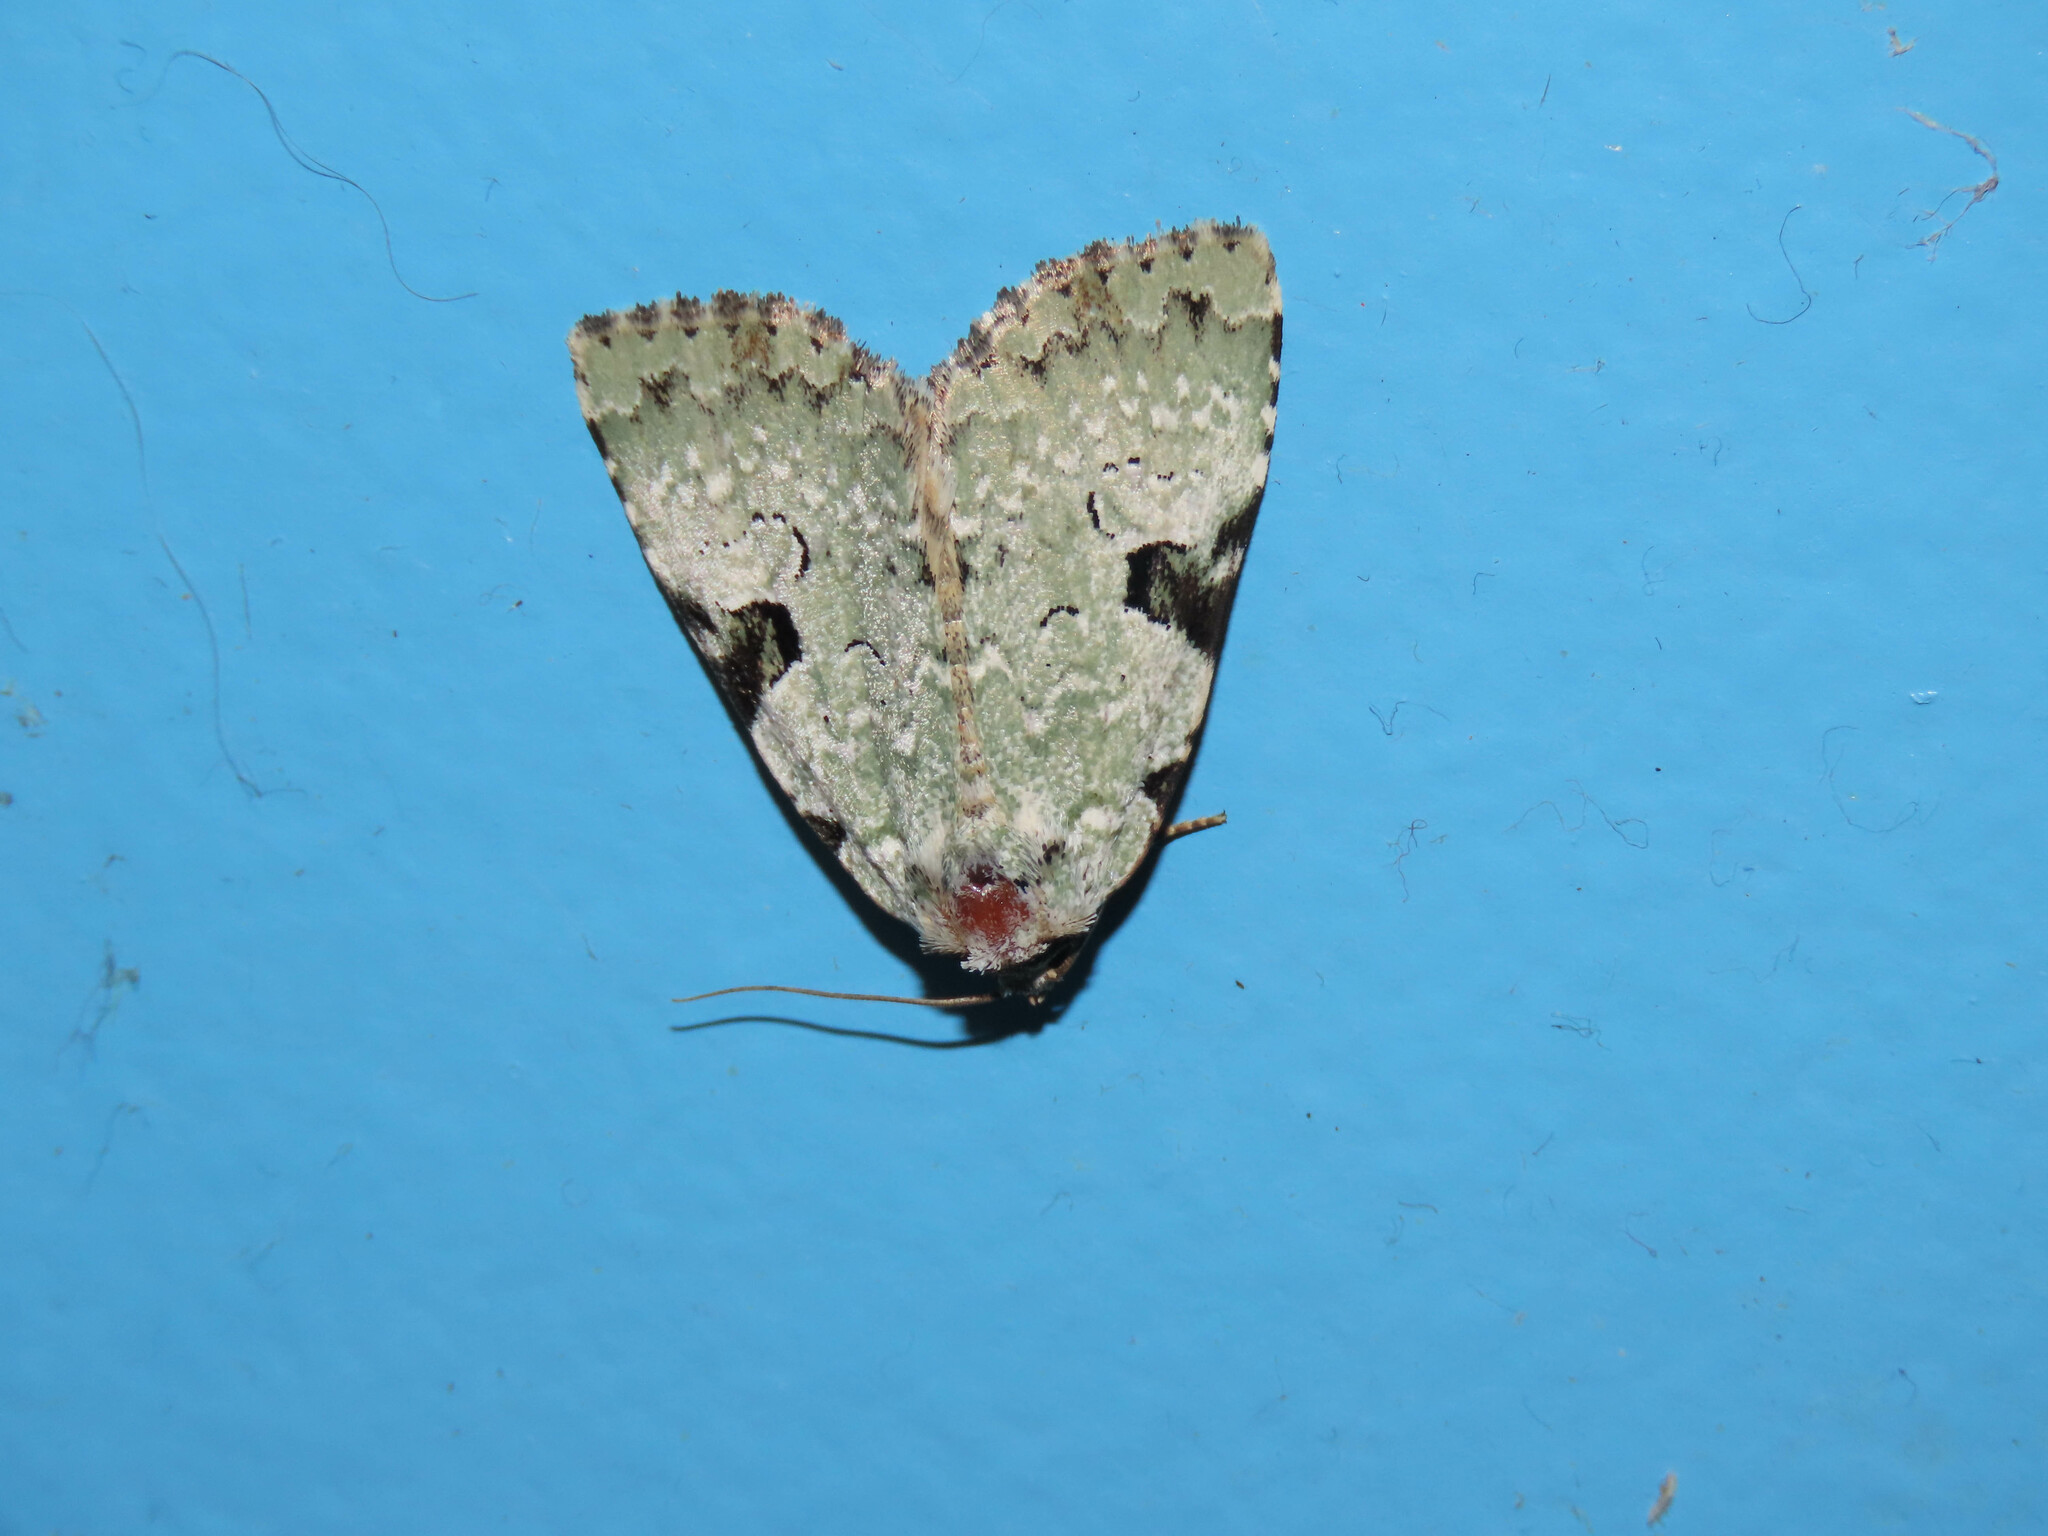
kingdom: Animalia
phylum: Arthropoda
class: Insecta
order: Lepidoptera
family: Noctuidae
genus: Leuconycta
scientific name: Leuconycta diphteroides
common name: Green leuconycta moth
